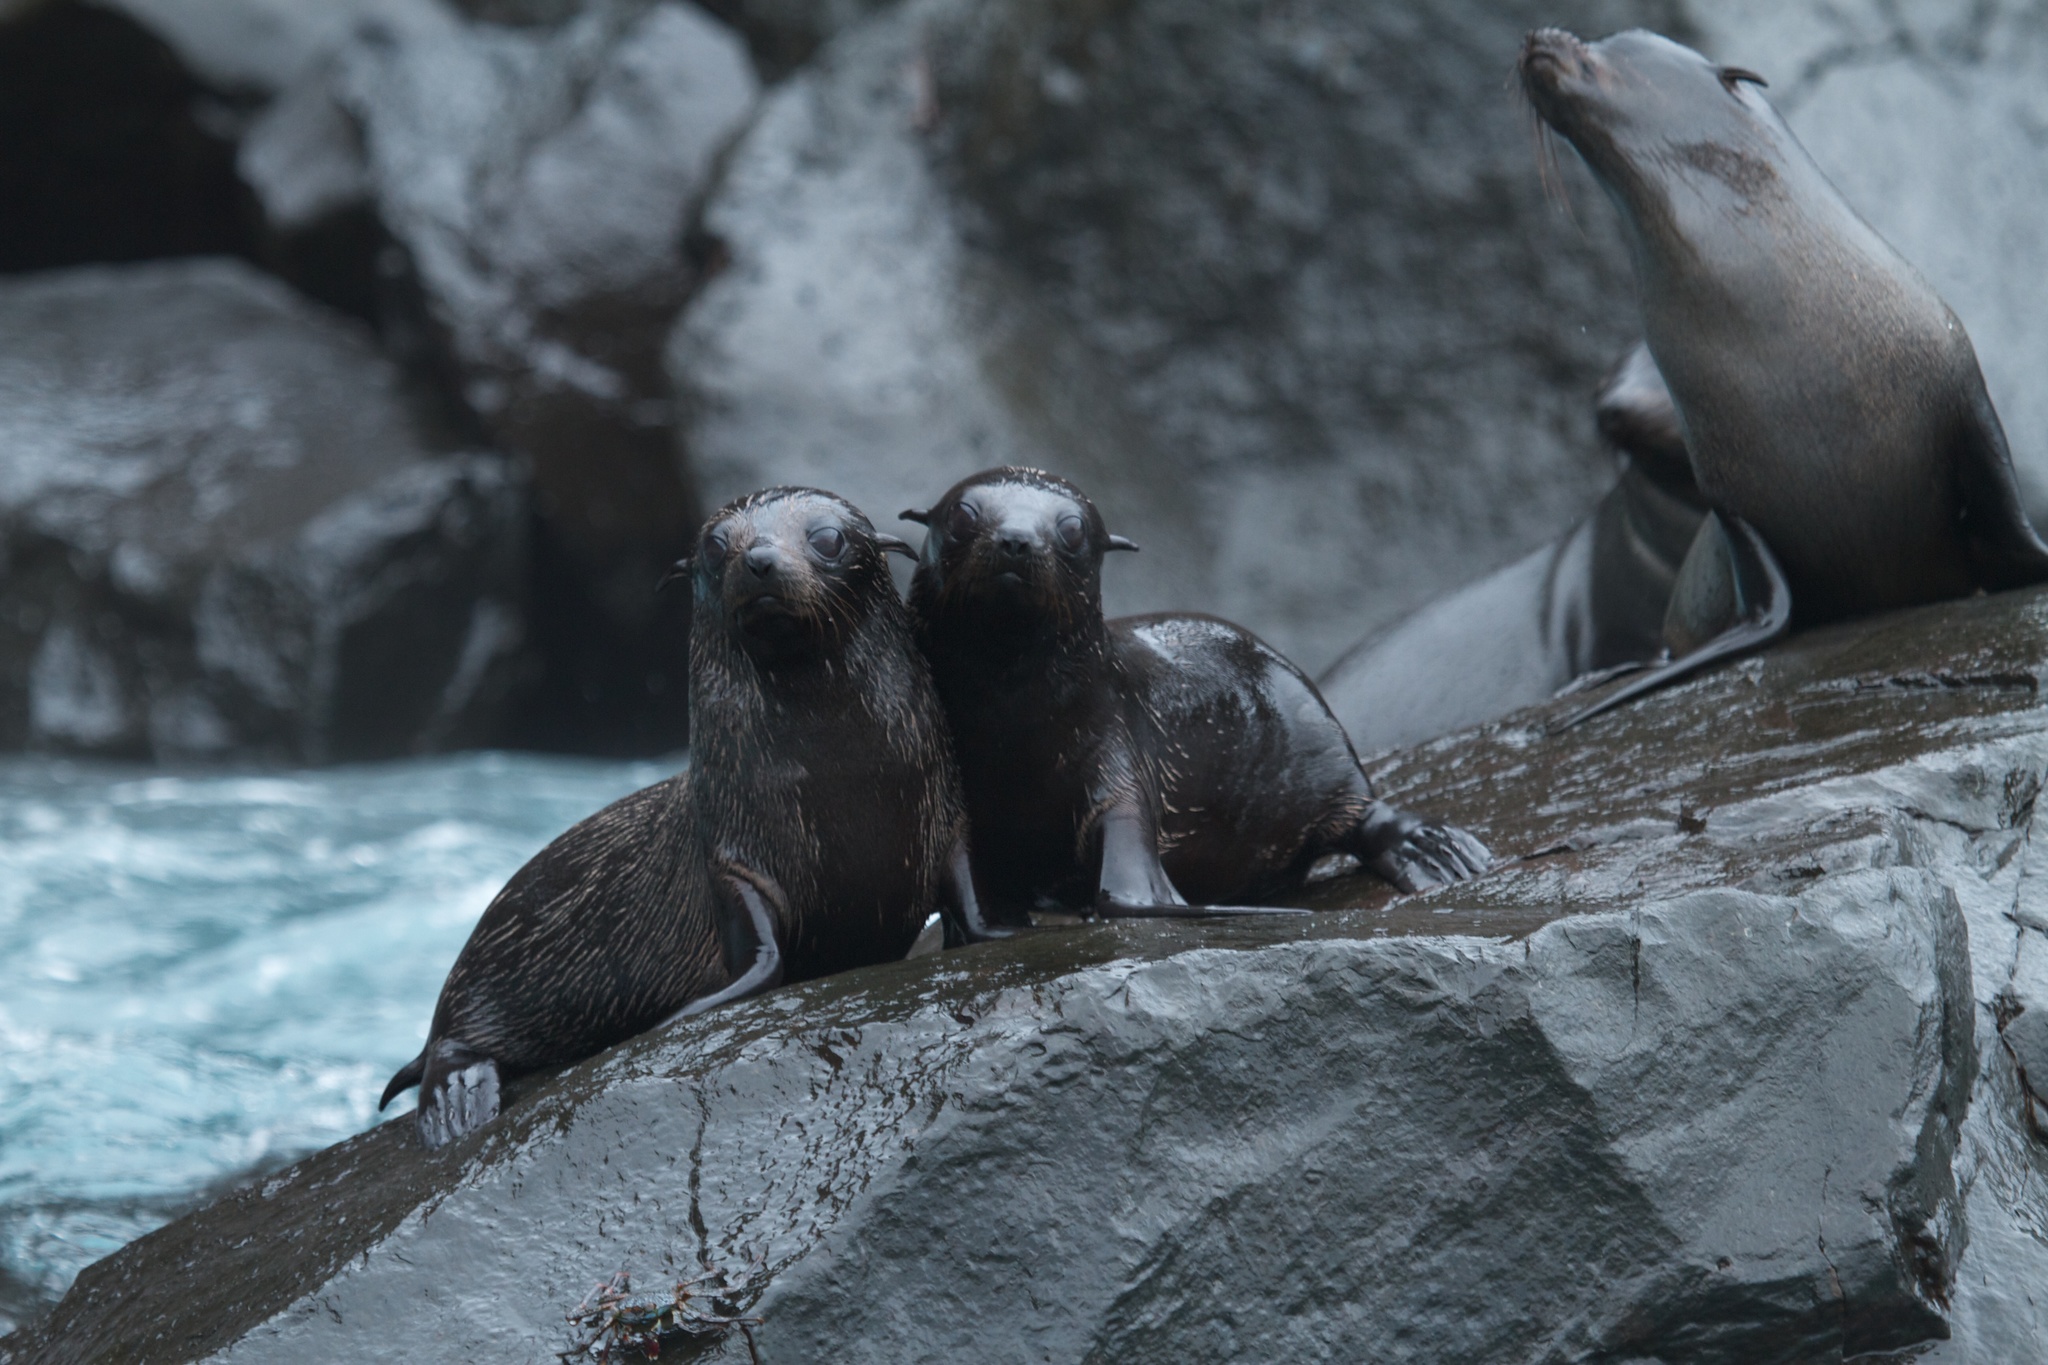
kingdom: Animalia
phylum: Chordata
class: Mammalia
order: Carnivora
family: Otariidae
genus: Arctocephalus
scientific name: Arctocephalus galapagoensis
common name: Galapagos fur seal
